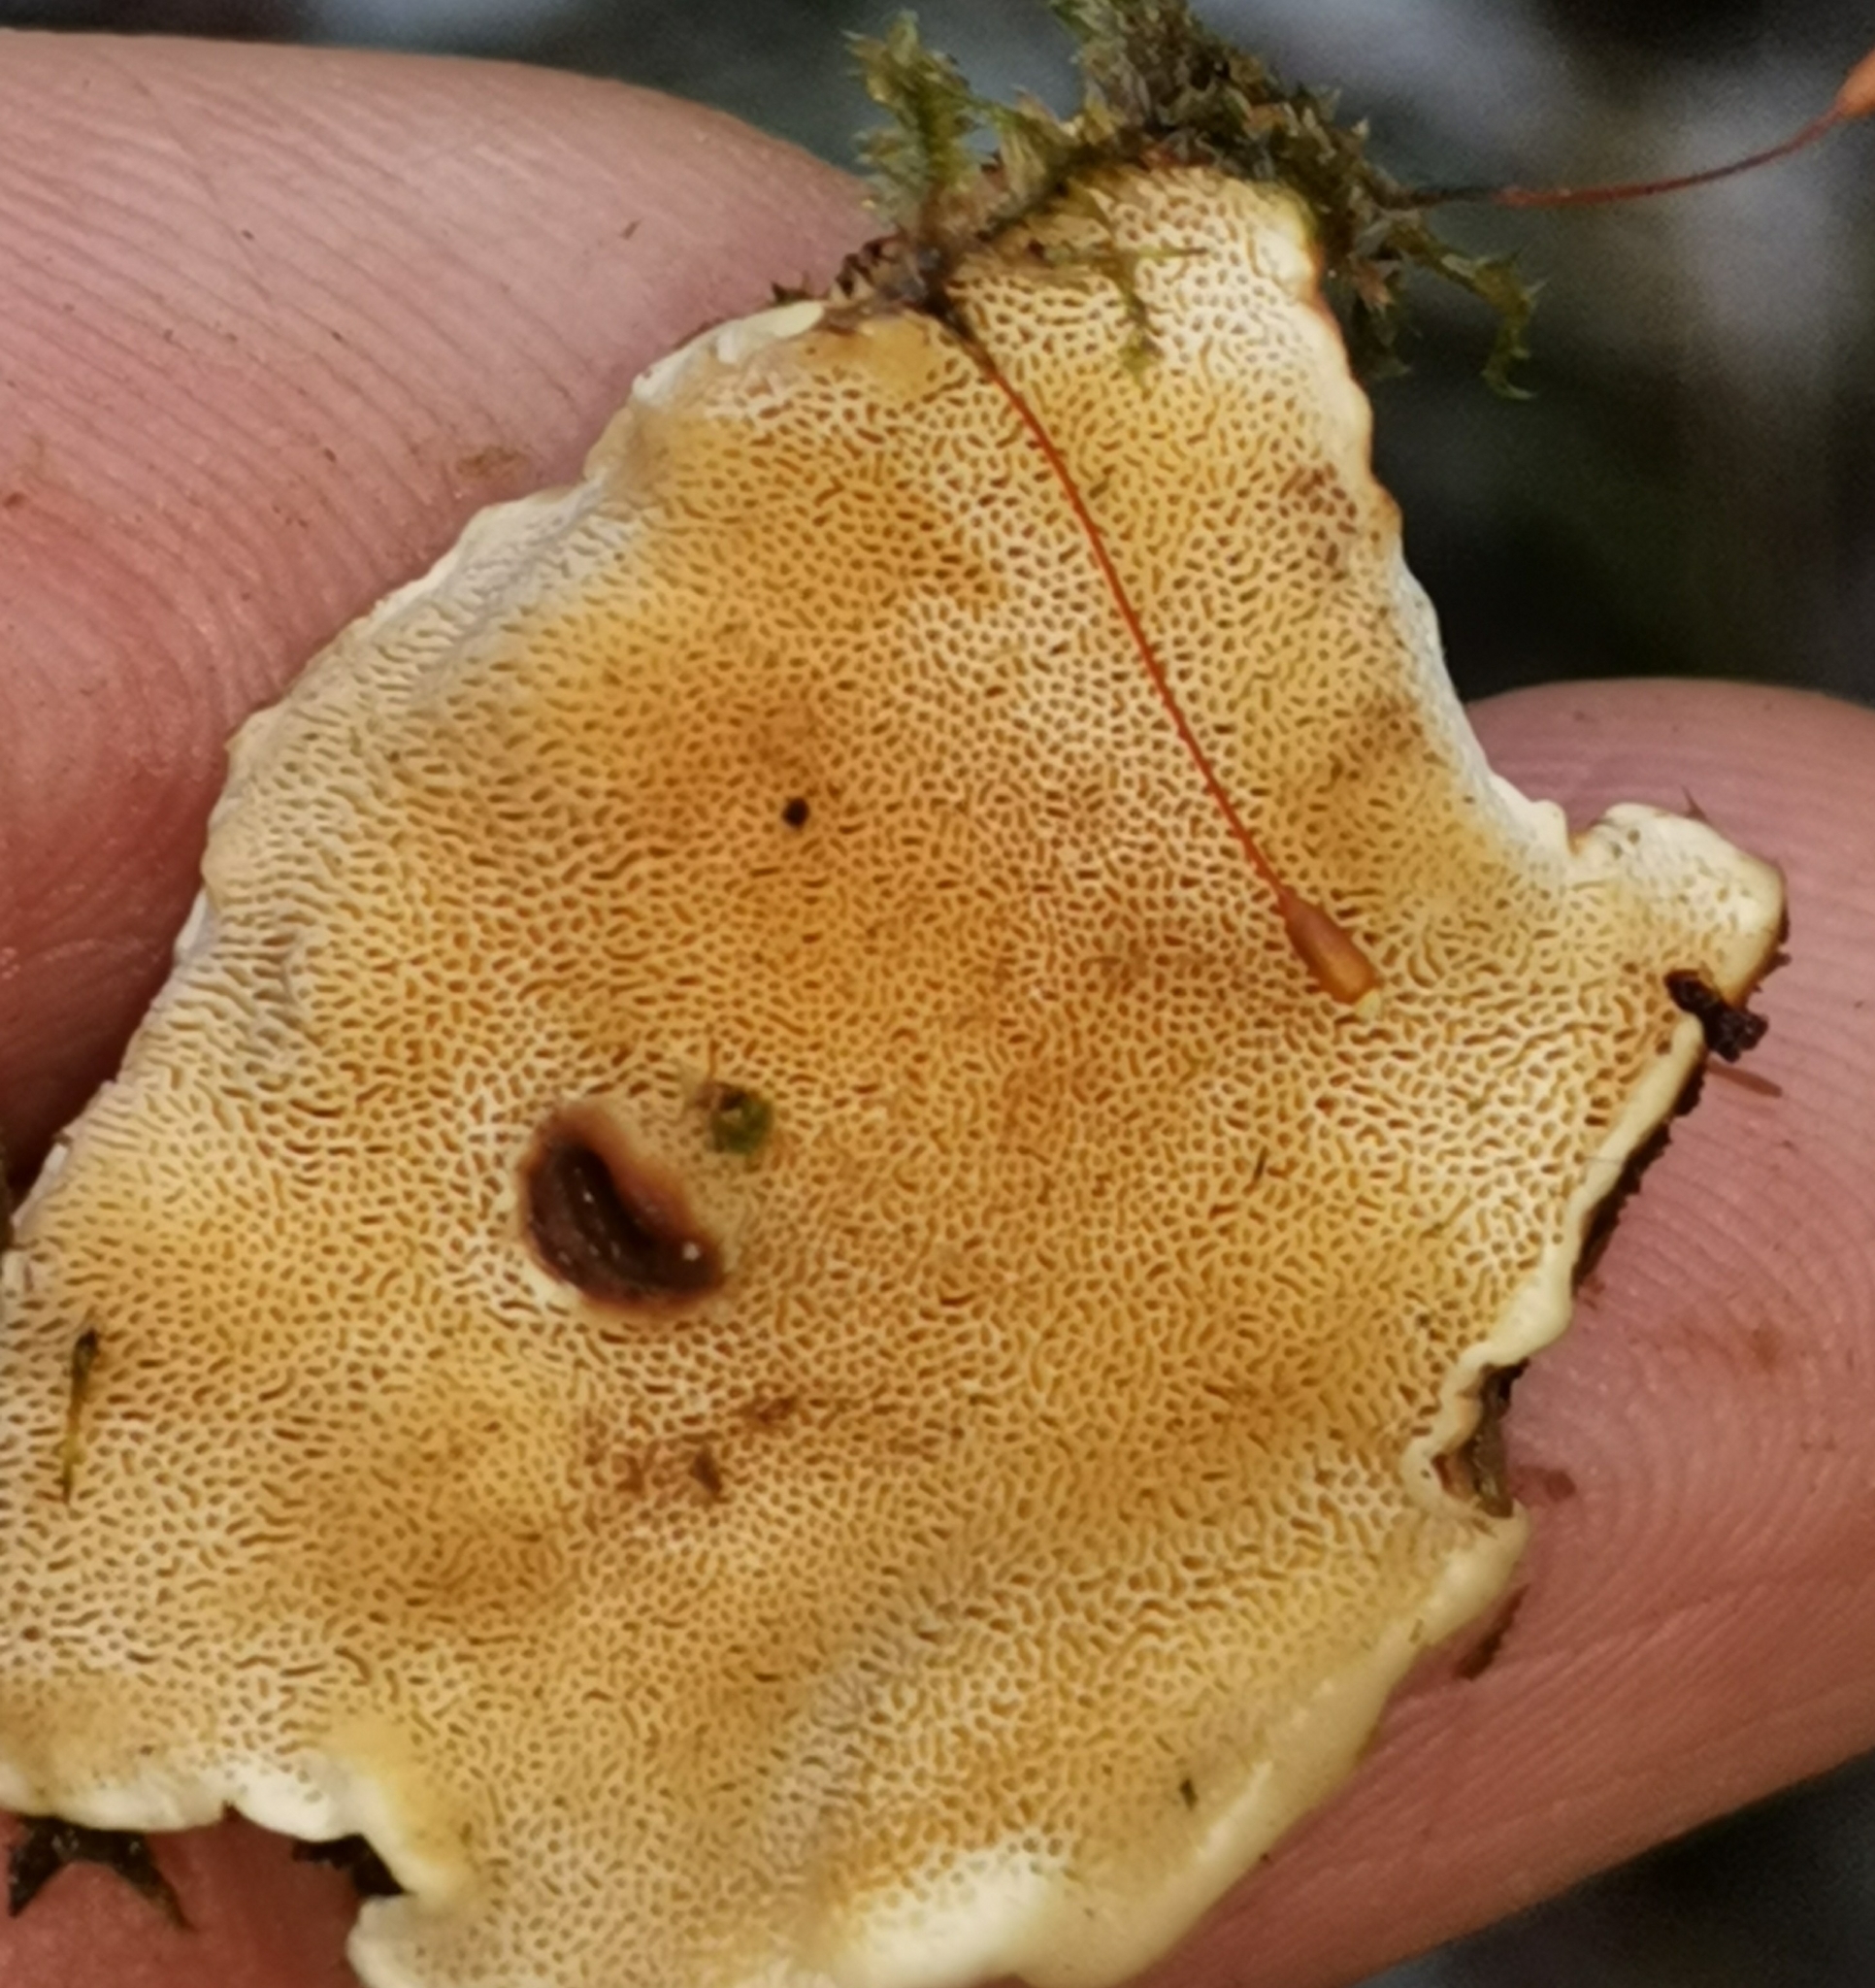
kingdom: Fungi
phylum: Basidiomycota
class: Agaricomycetes
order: Russulales
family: Bondarzewiaceae
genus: Heterobasidion
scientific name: Heterobasidion parviporum
